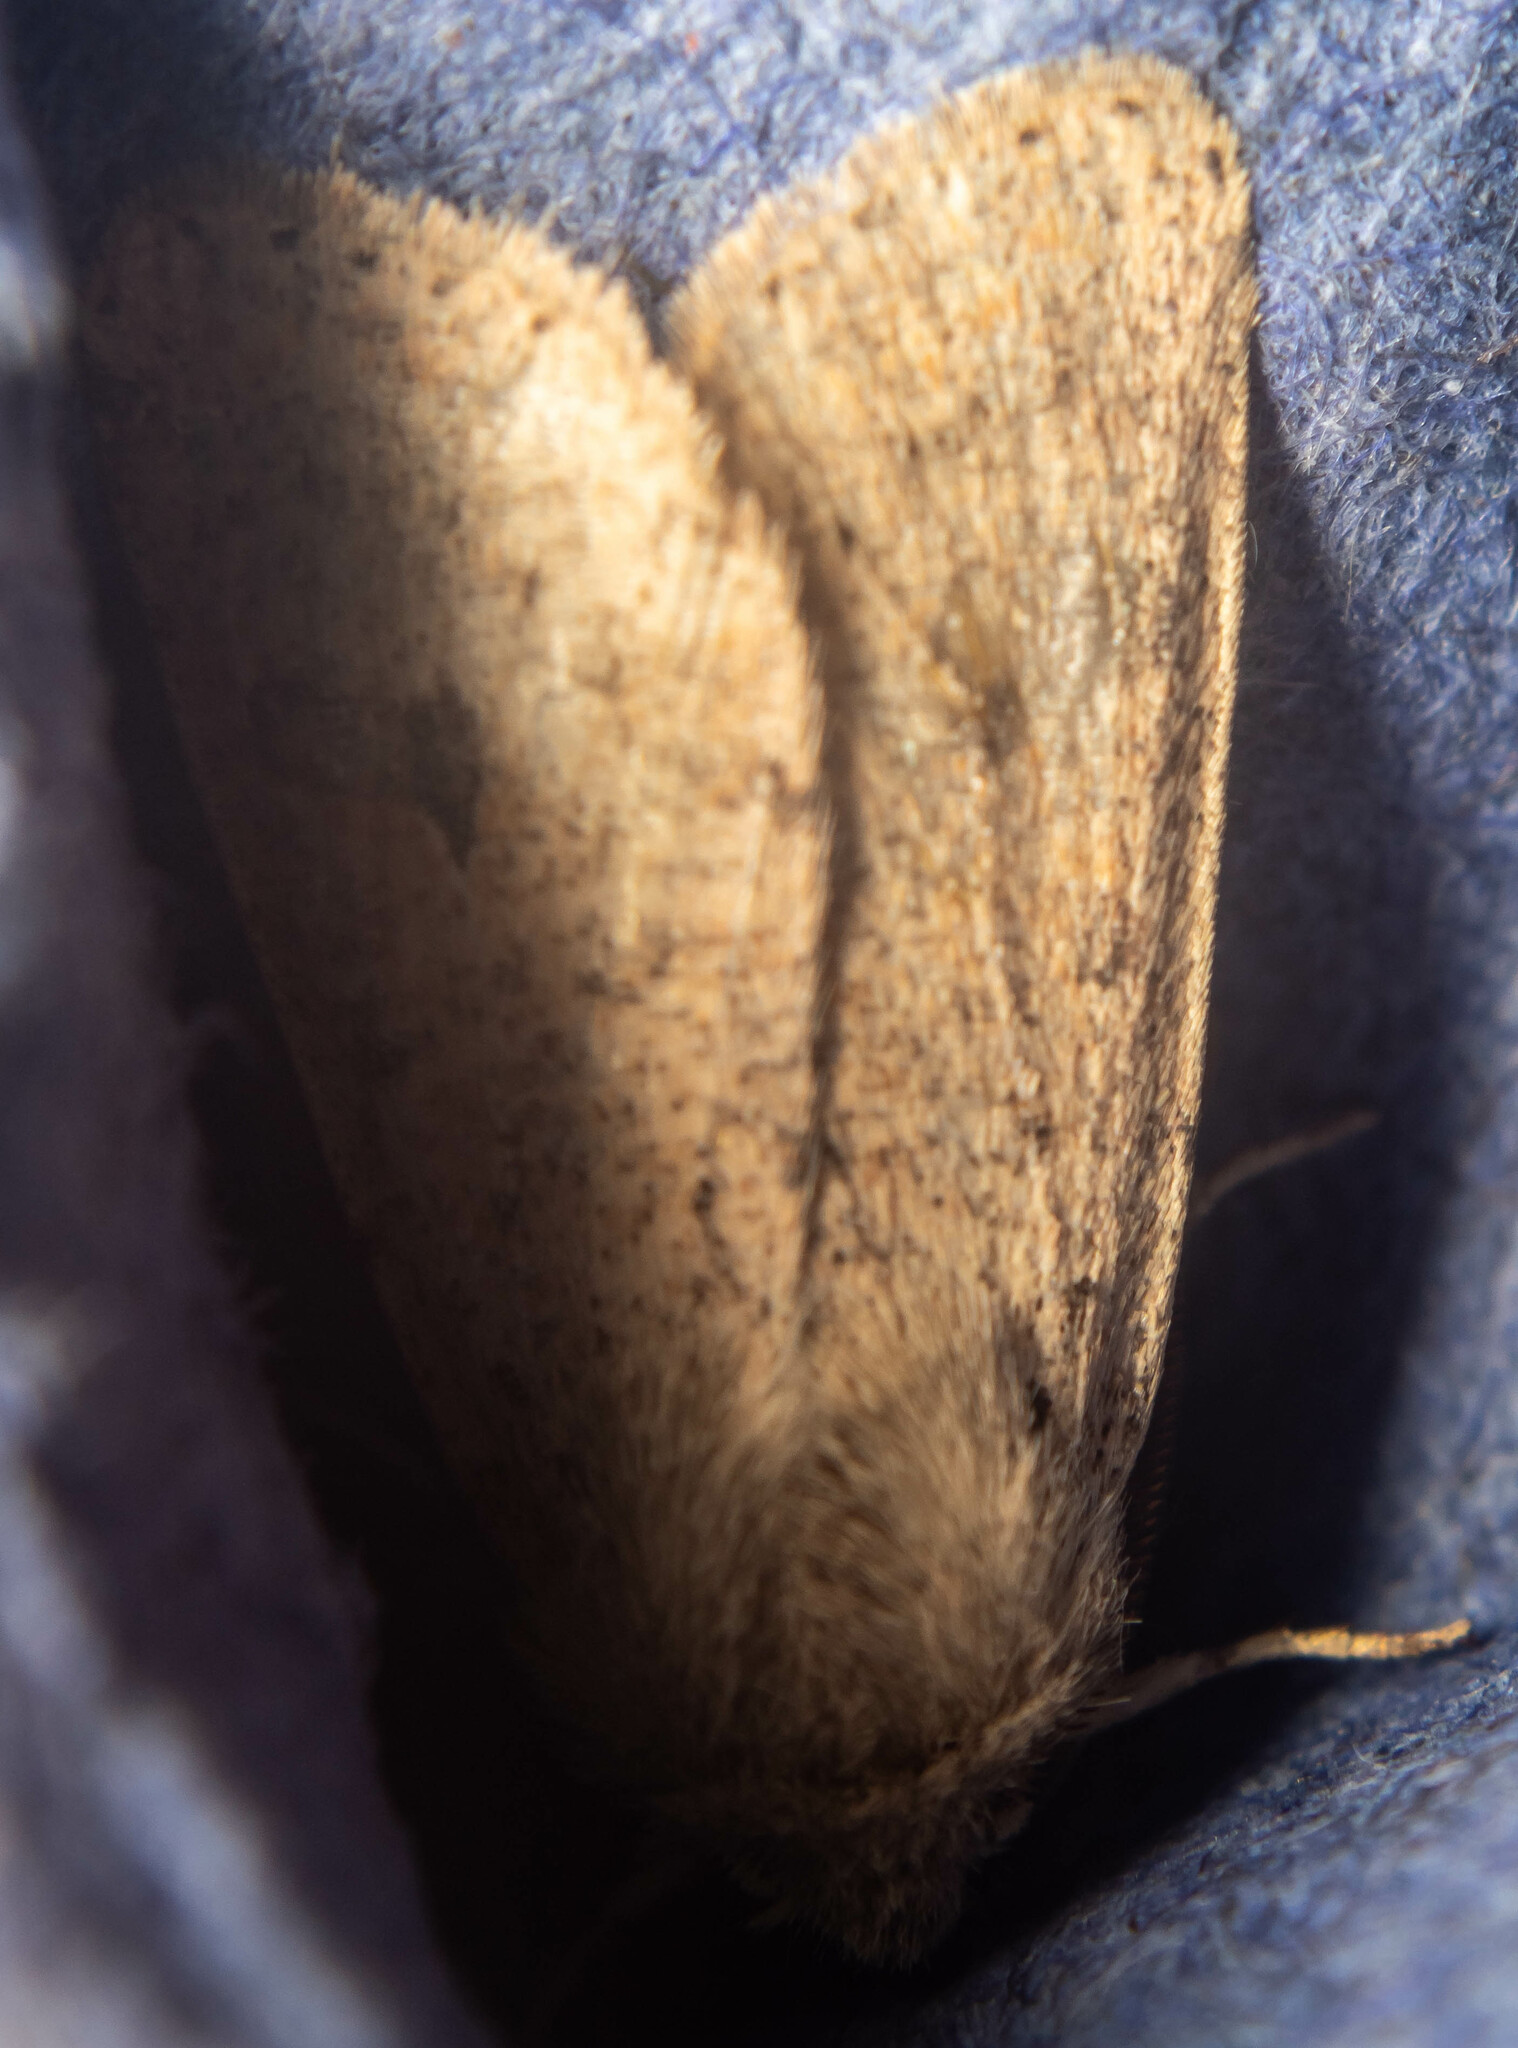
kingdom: Animalia
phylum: Arthropoda
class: Insecta
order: Lepidoptera
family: Noctuidae
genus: Orthosia
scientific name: Orthosia cruda
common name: Small quaker
